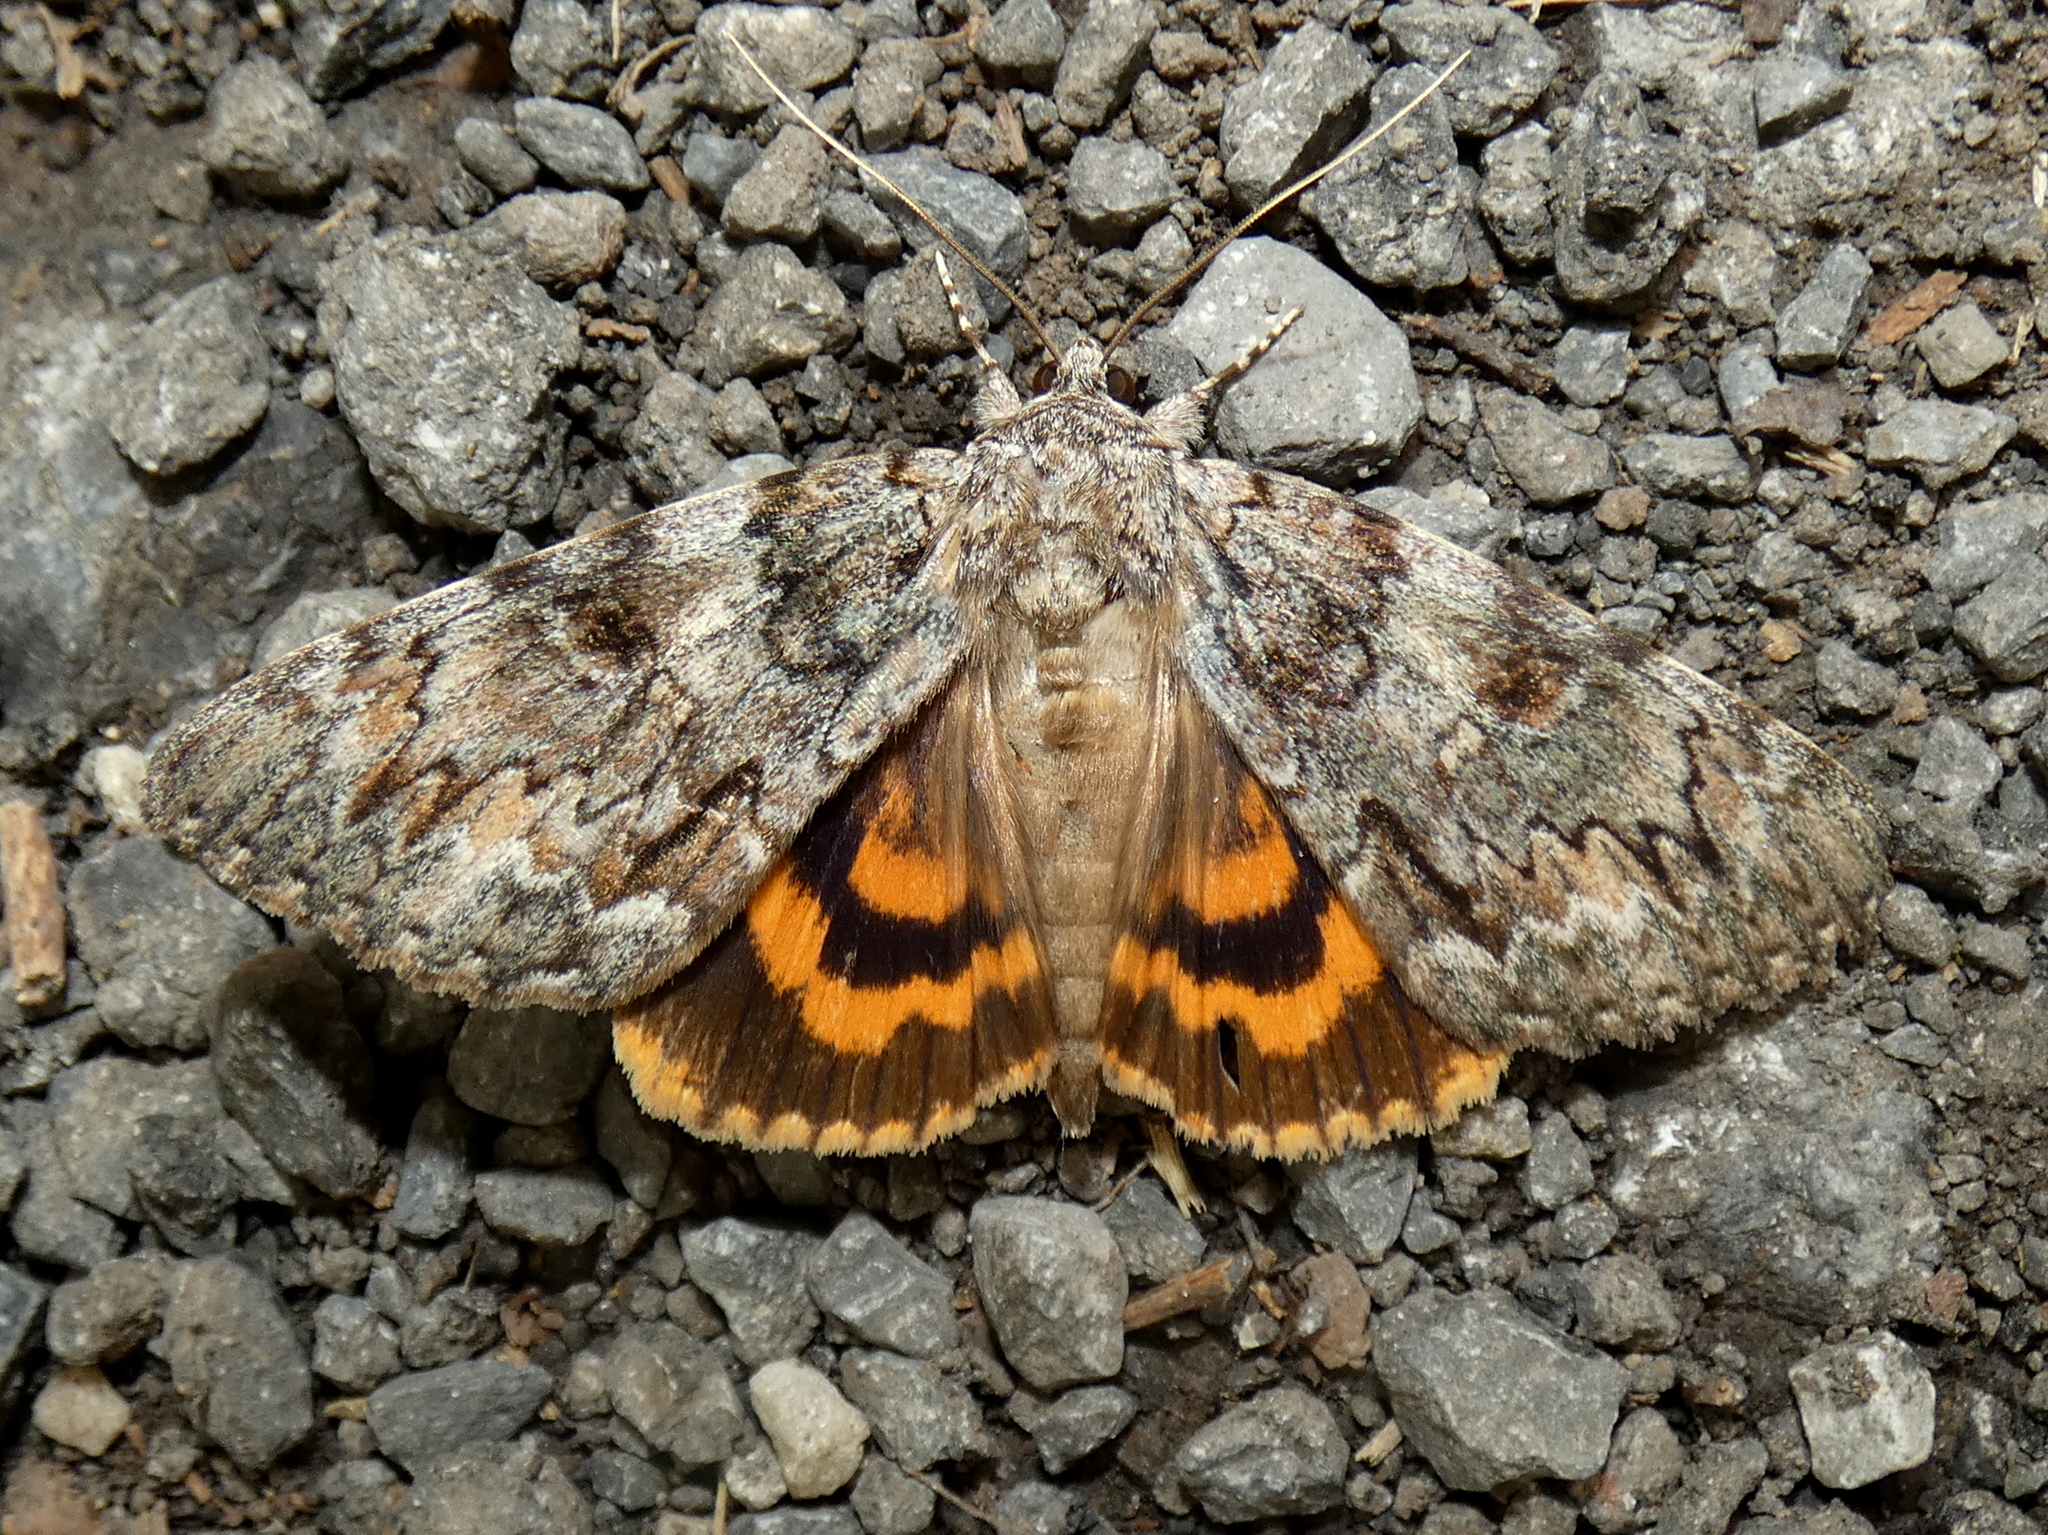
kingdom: Animalia
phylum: Arthropoda
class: Insecta
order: Lepidoptera
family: Erebidae
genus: Catocala
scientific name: Catocala palaeogama
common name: Oldwife underwing
